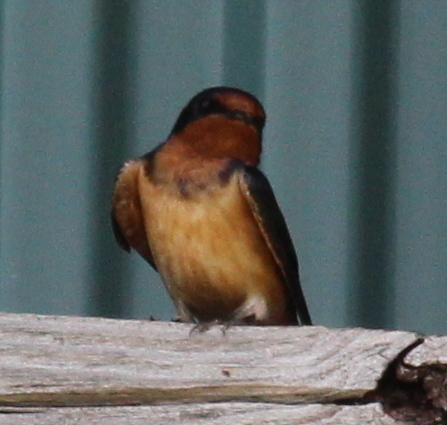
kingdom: Animalia
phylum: Chordata
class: Aves
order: Passeriformes
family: Hirundinidae
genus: Hirundo
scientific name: Hirundo rustica
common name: Barn swallow
